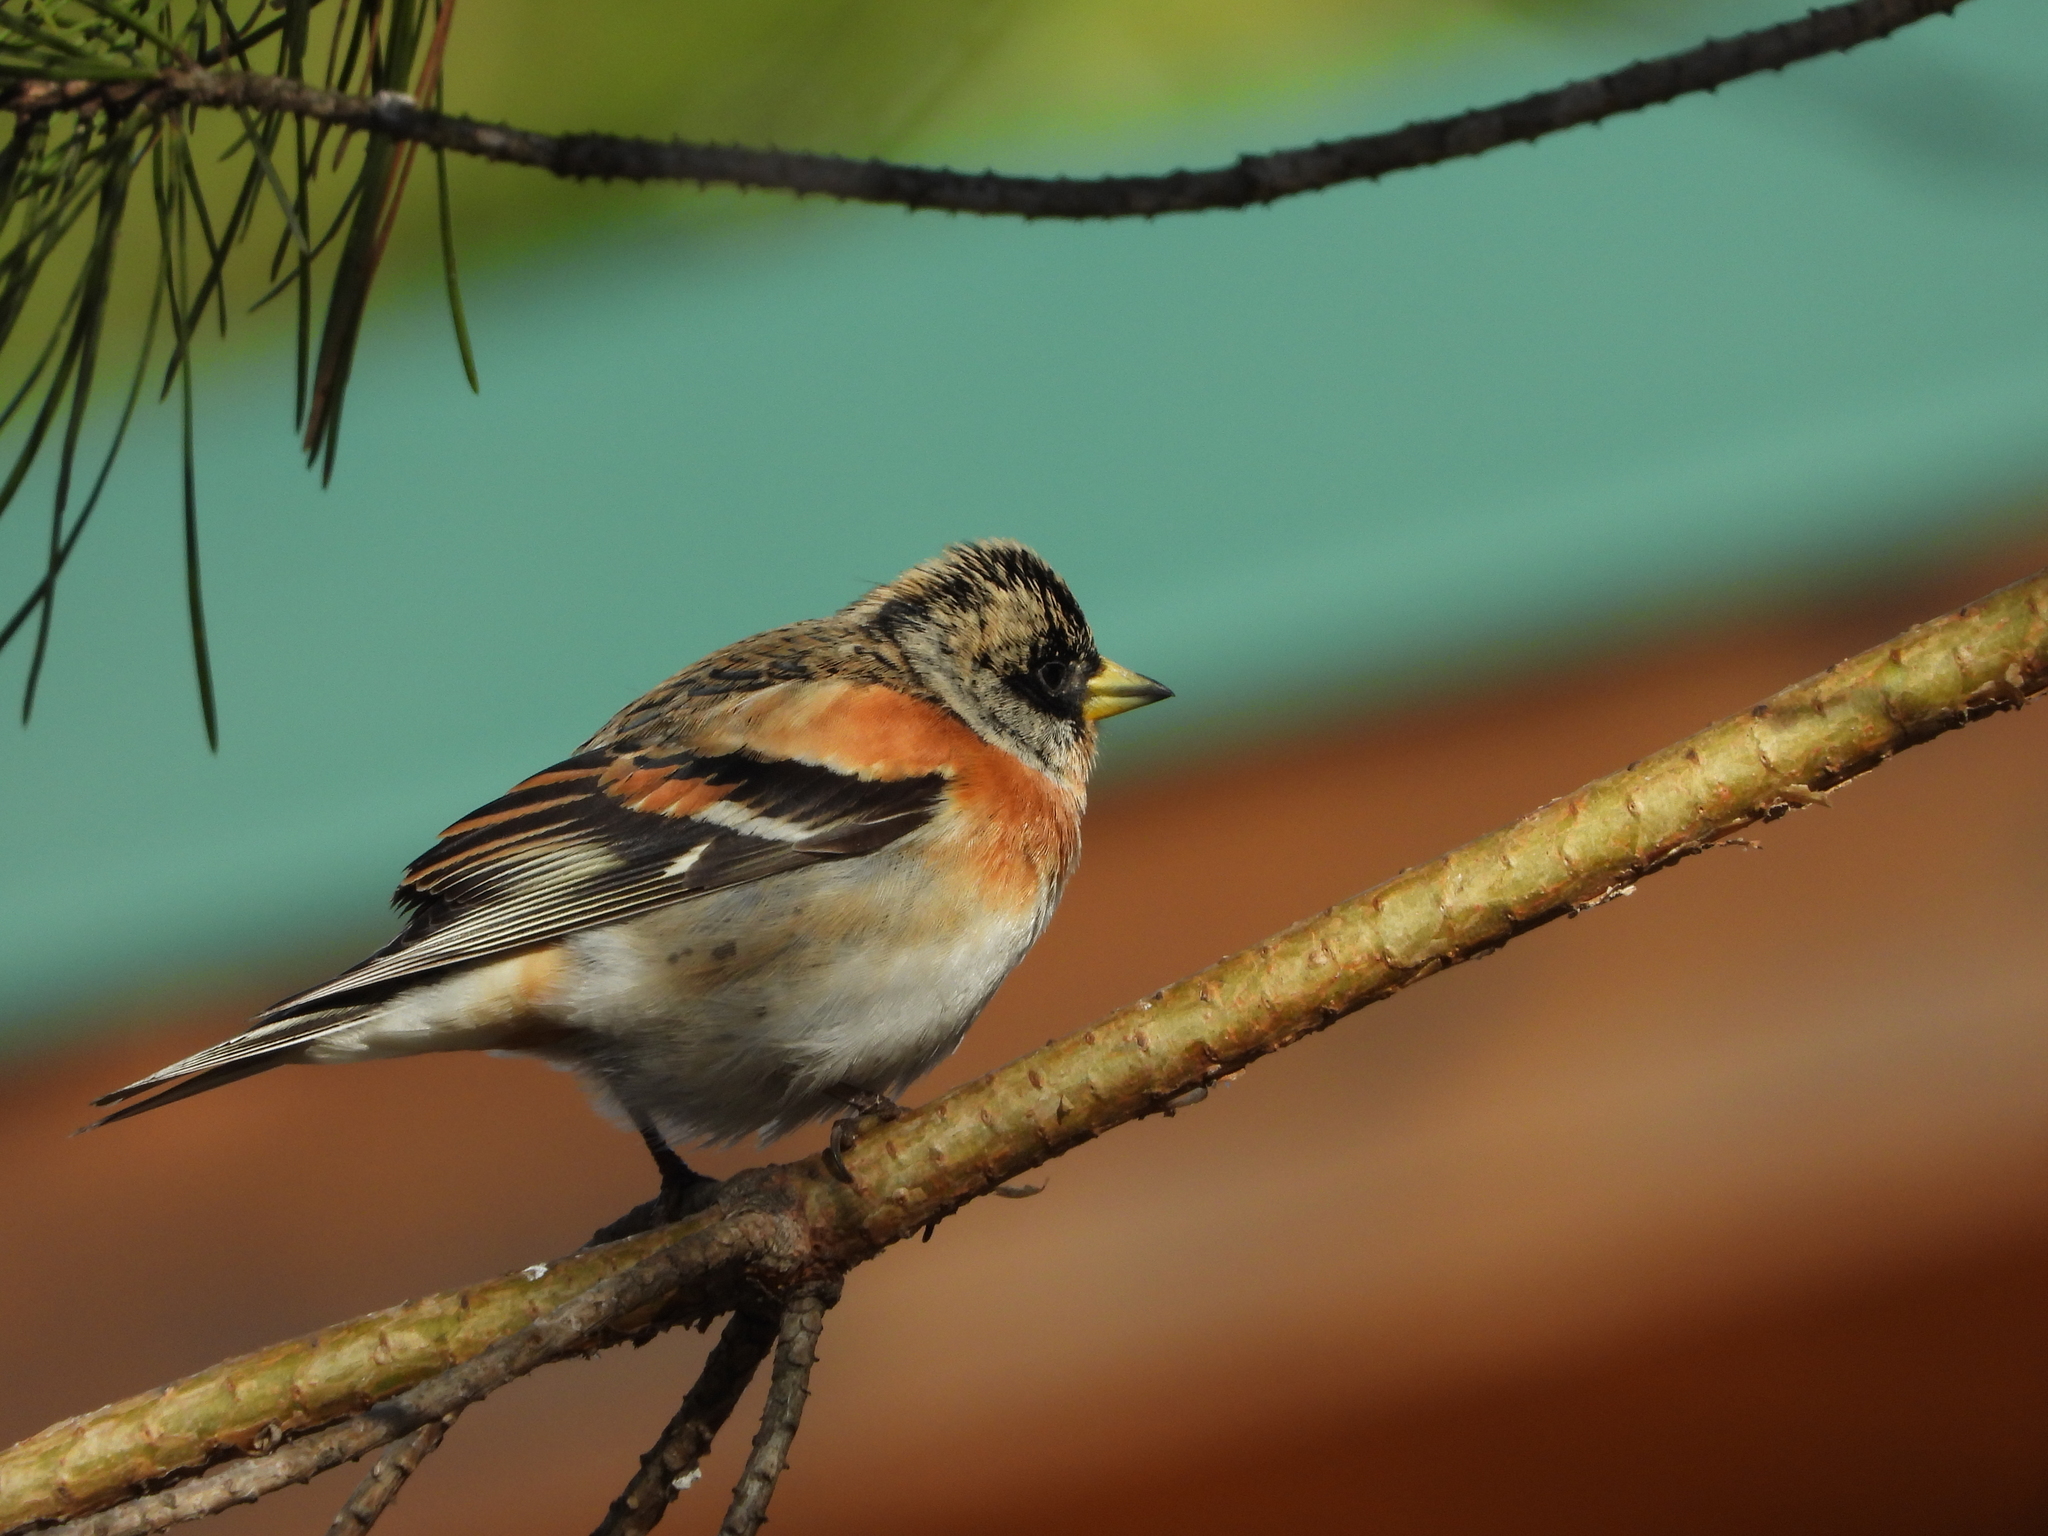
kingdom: Animalia
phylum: Chordata
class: Aves
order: Passeriformes
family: Fringillidae
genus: Fringilla
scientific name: Fringilla montifringilla
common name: Brambling
